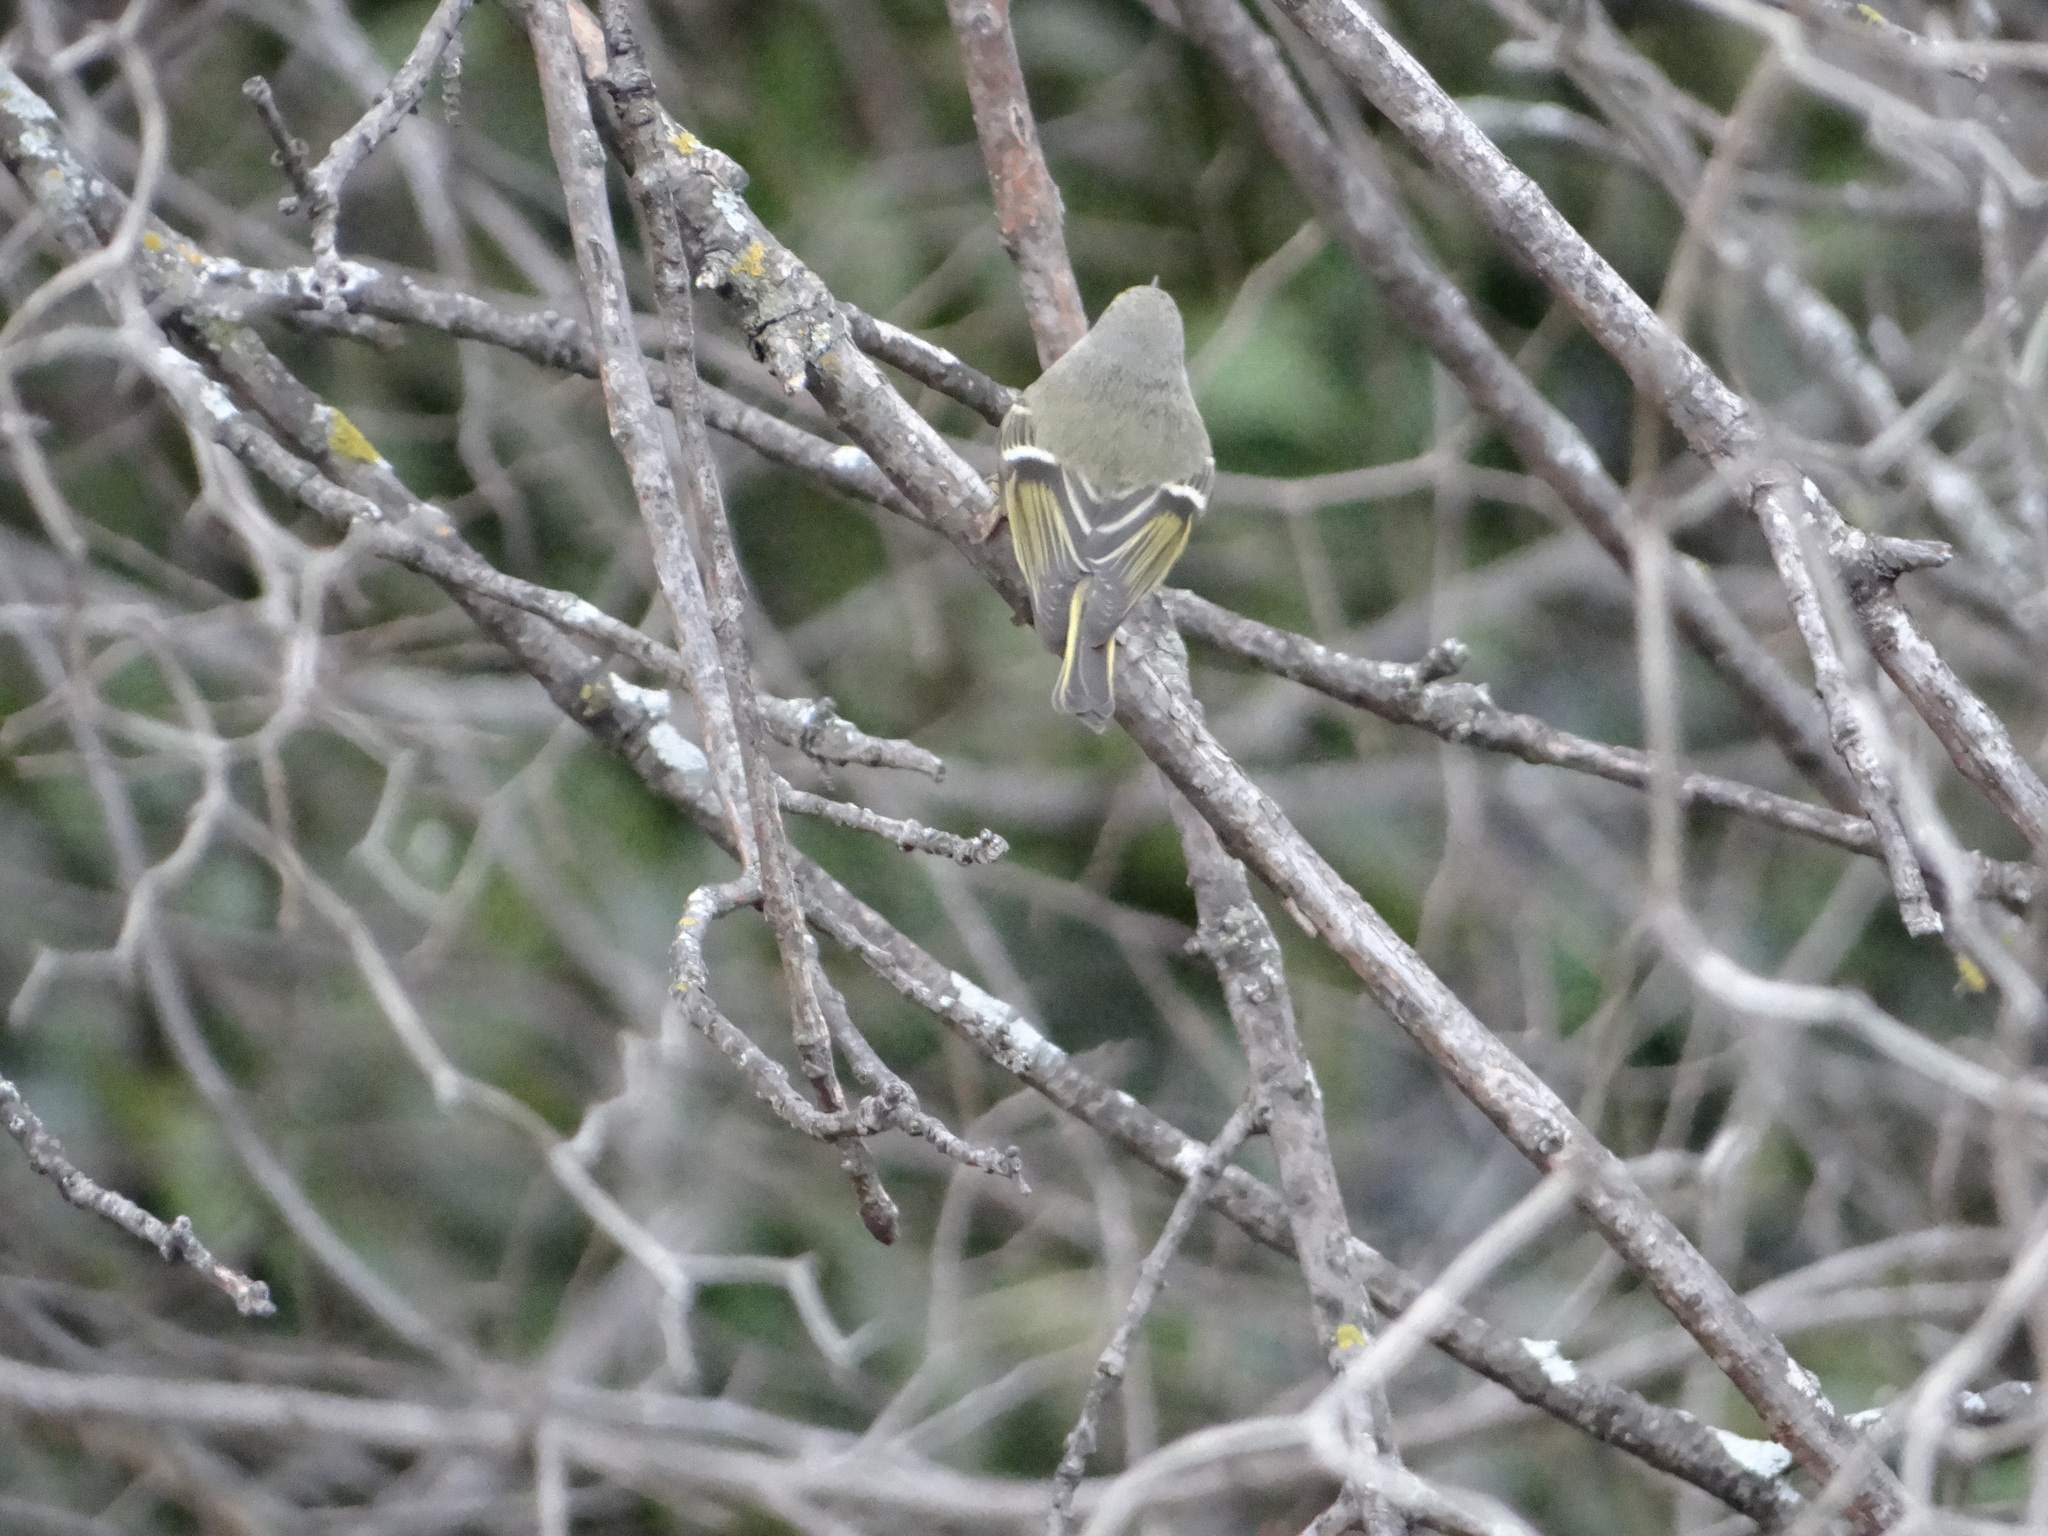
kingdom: Animalia
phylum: Chordata
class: Aves
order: Passeriformes
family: Regulidae
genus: Regulus
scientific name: Regulus calendula
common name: Ruby-crowned kinglet
